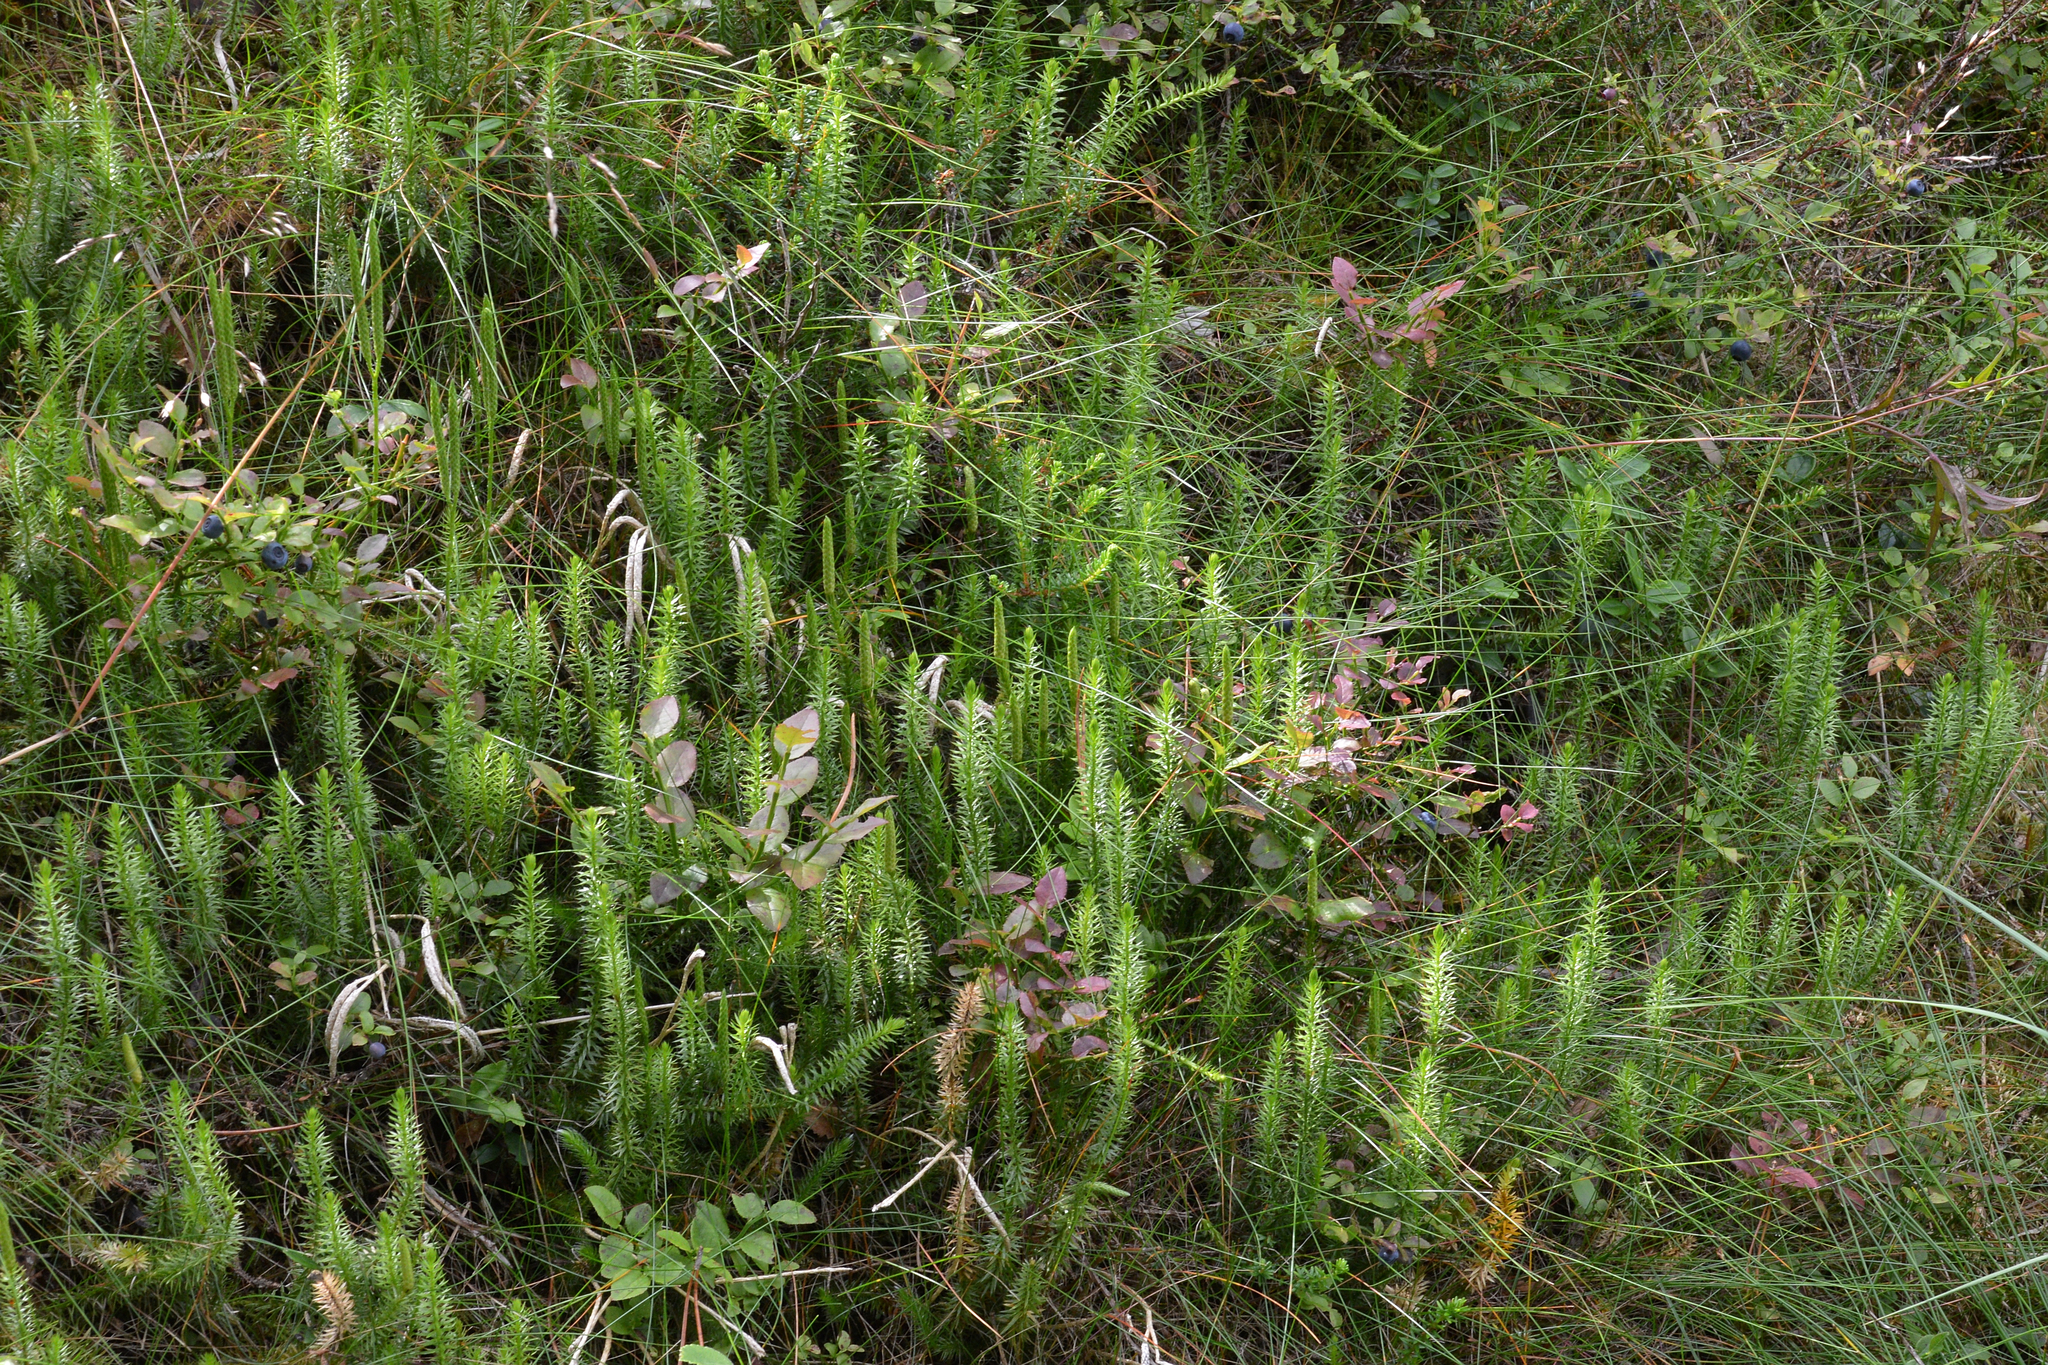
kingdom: Plantae
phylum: Tracheophyta
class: Lycopodiopsida
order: Lycopodiales
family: Lycopodiaceae
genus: Spinulum
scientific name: Spinulum annotinum
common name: Interrupted club-moss
